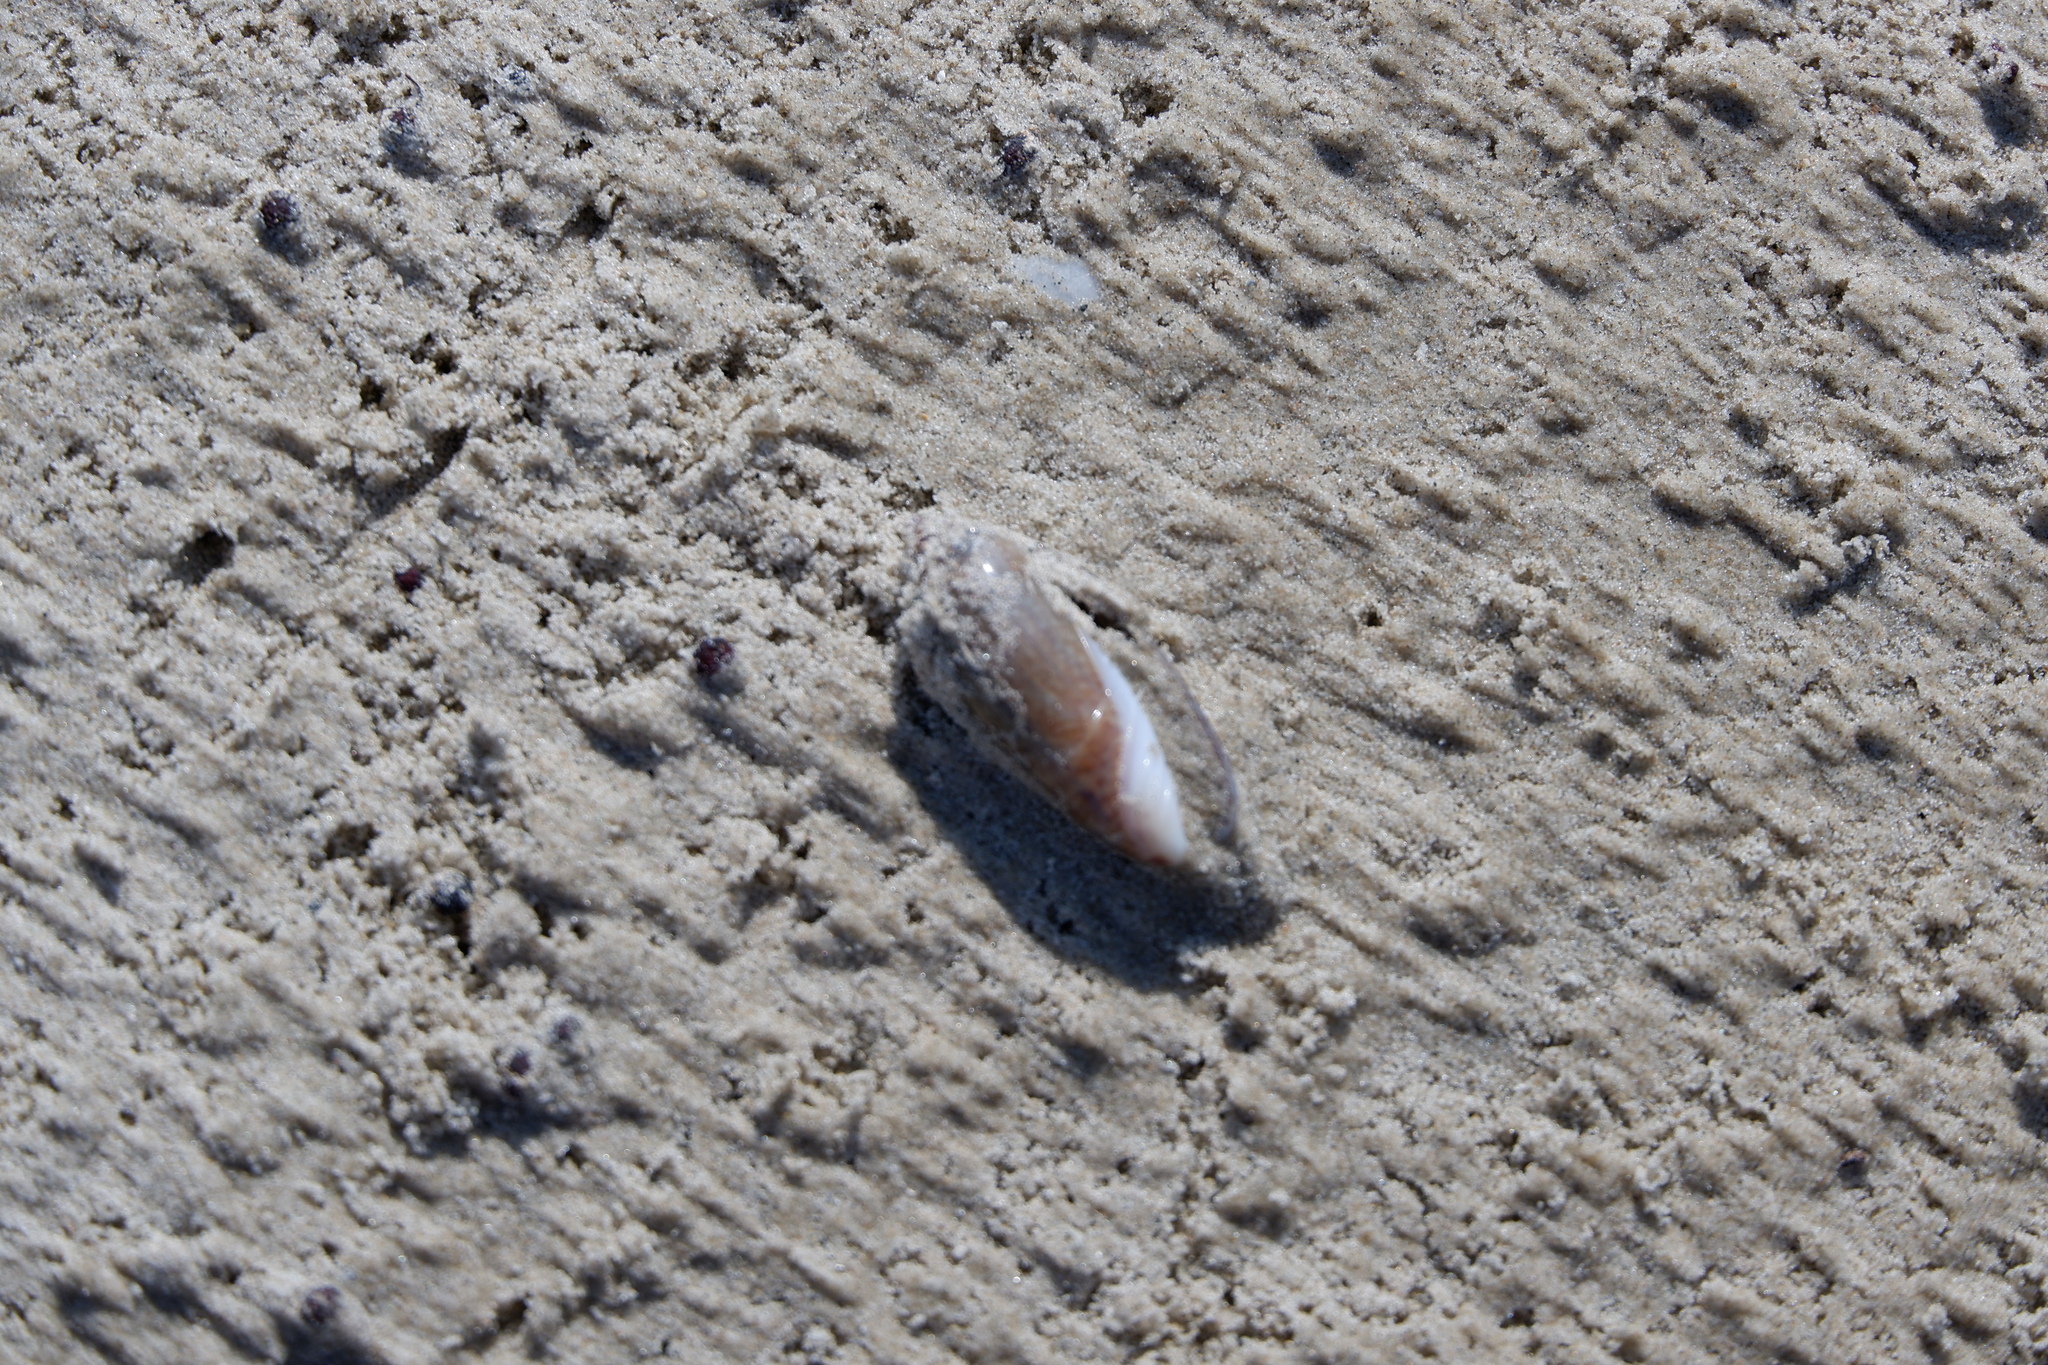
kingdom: Animalia
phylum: Mollusca
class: Gastropoda
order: Neogastropoda
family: Olividae
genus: Oliva
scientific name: Oliva sayana
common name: Lettered olive
